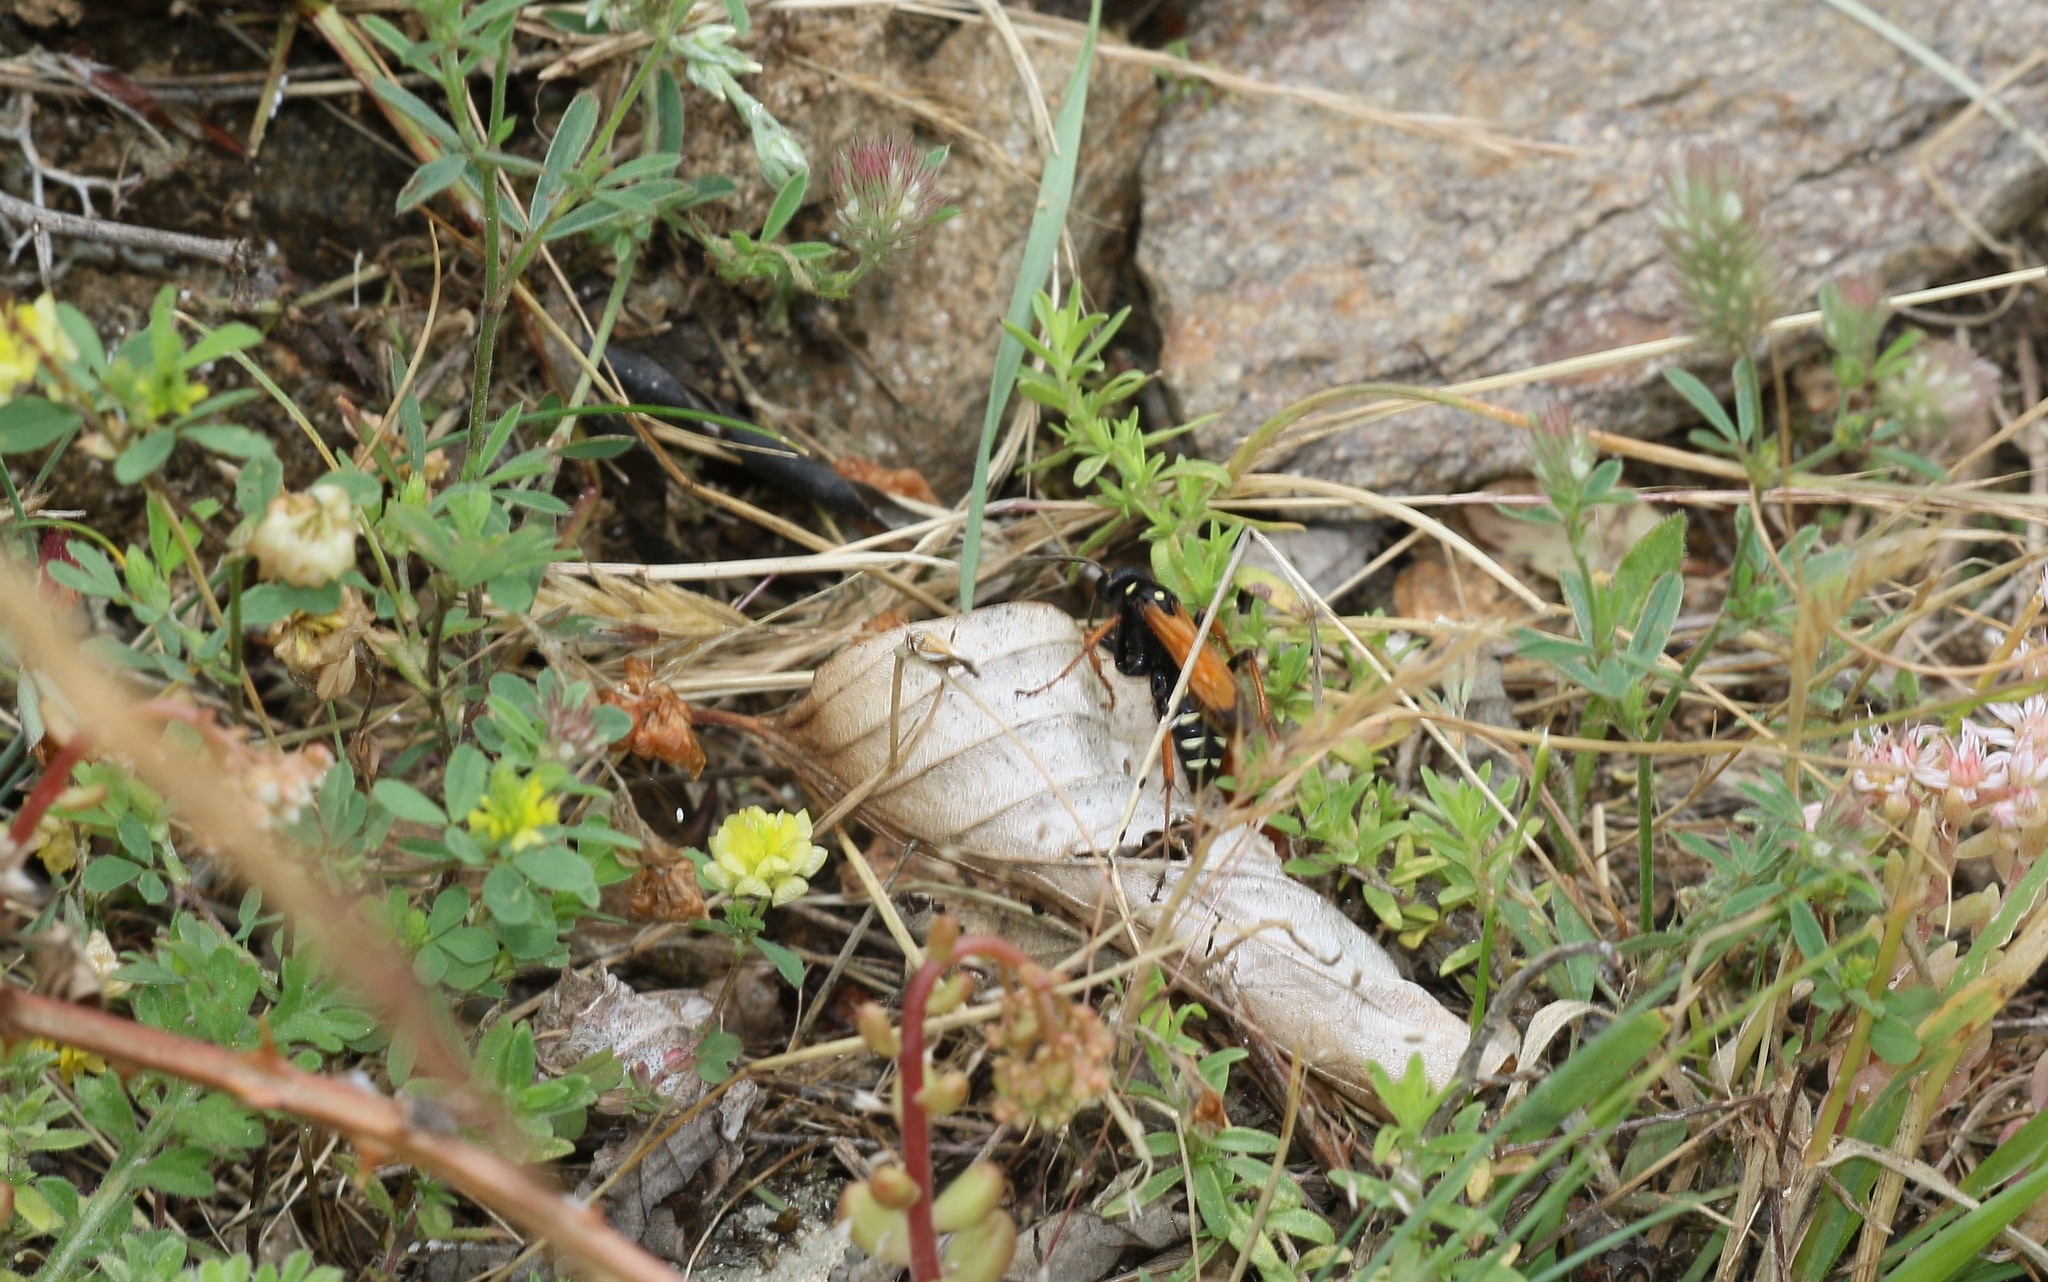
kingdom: Animalia
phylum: Arthropoda
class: Insecta
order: Hymenoptera
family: Pompilidae
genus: Parabatozonus
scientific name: Parabatozonus lacerticida
